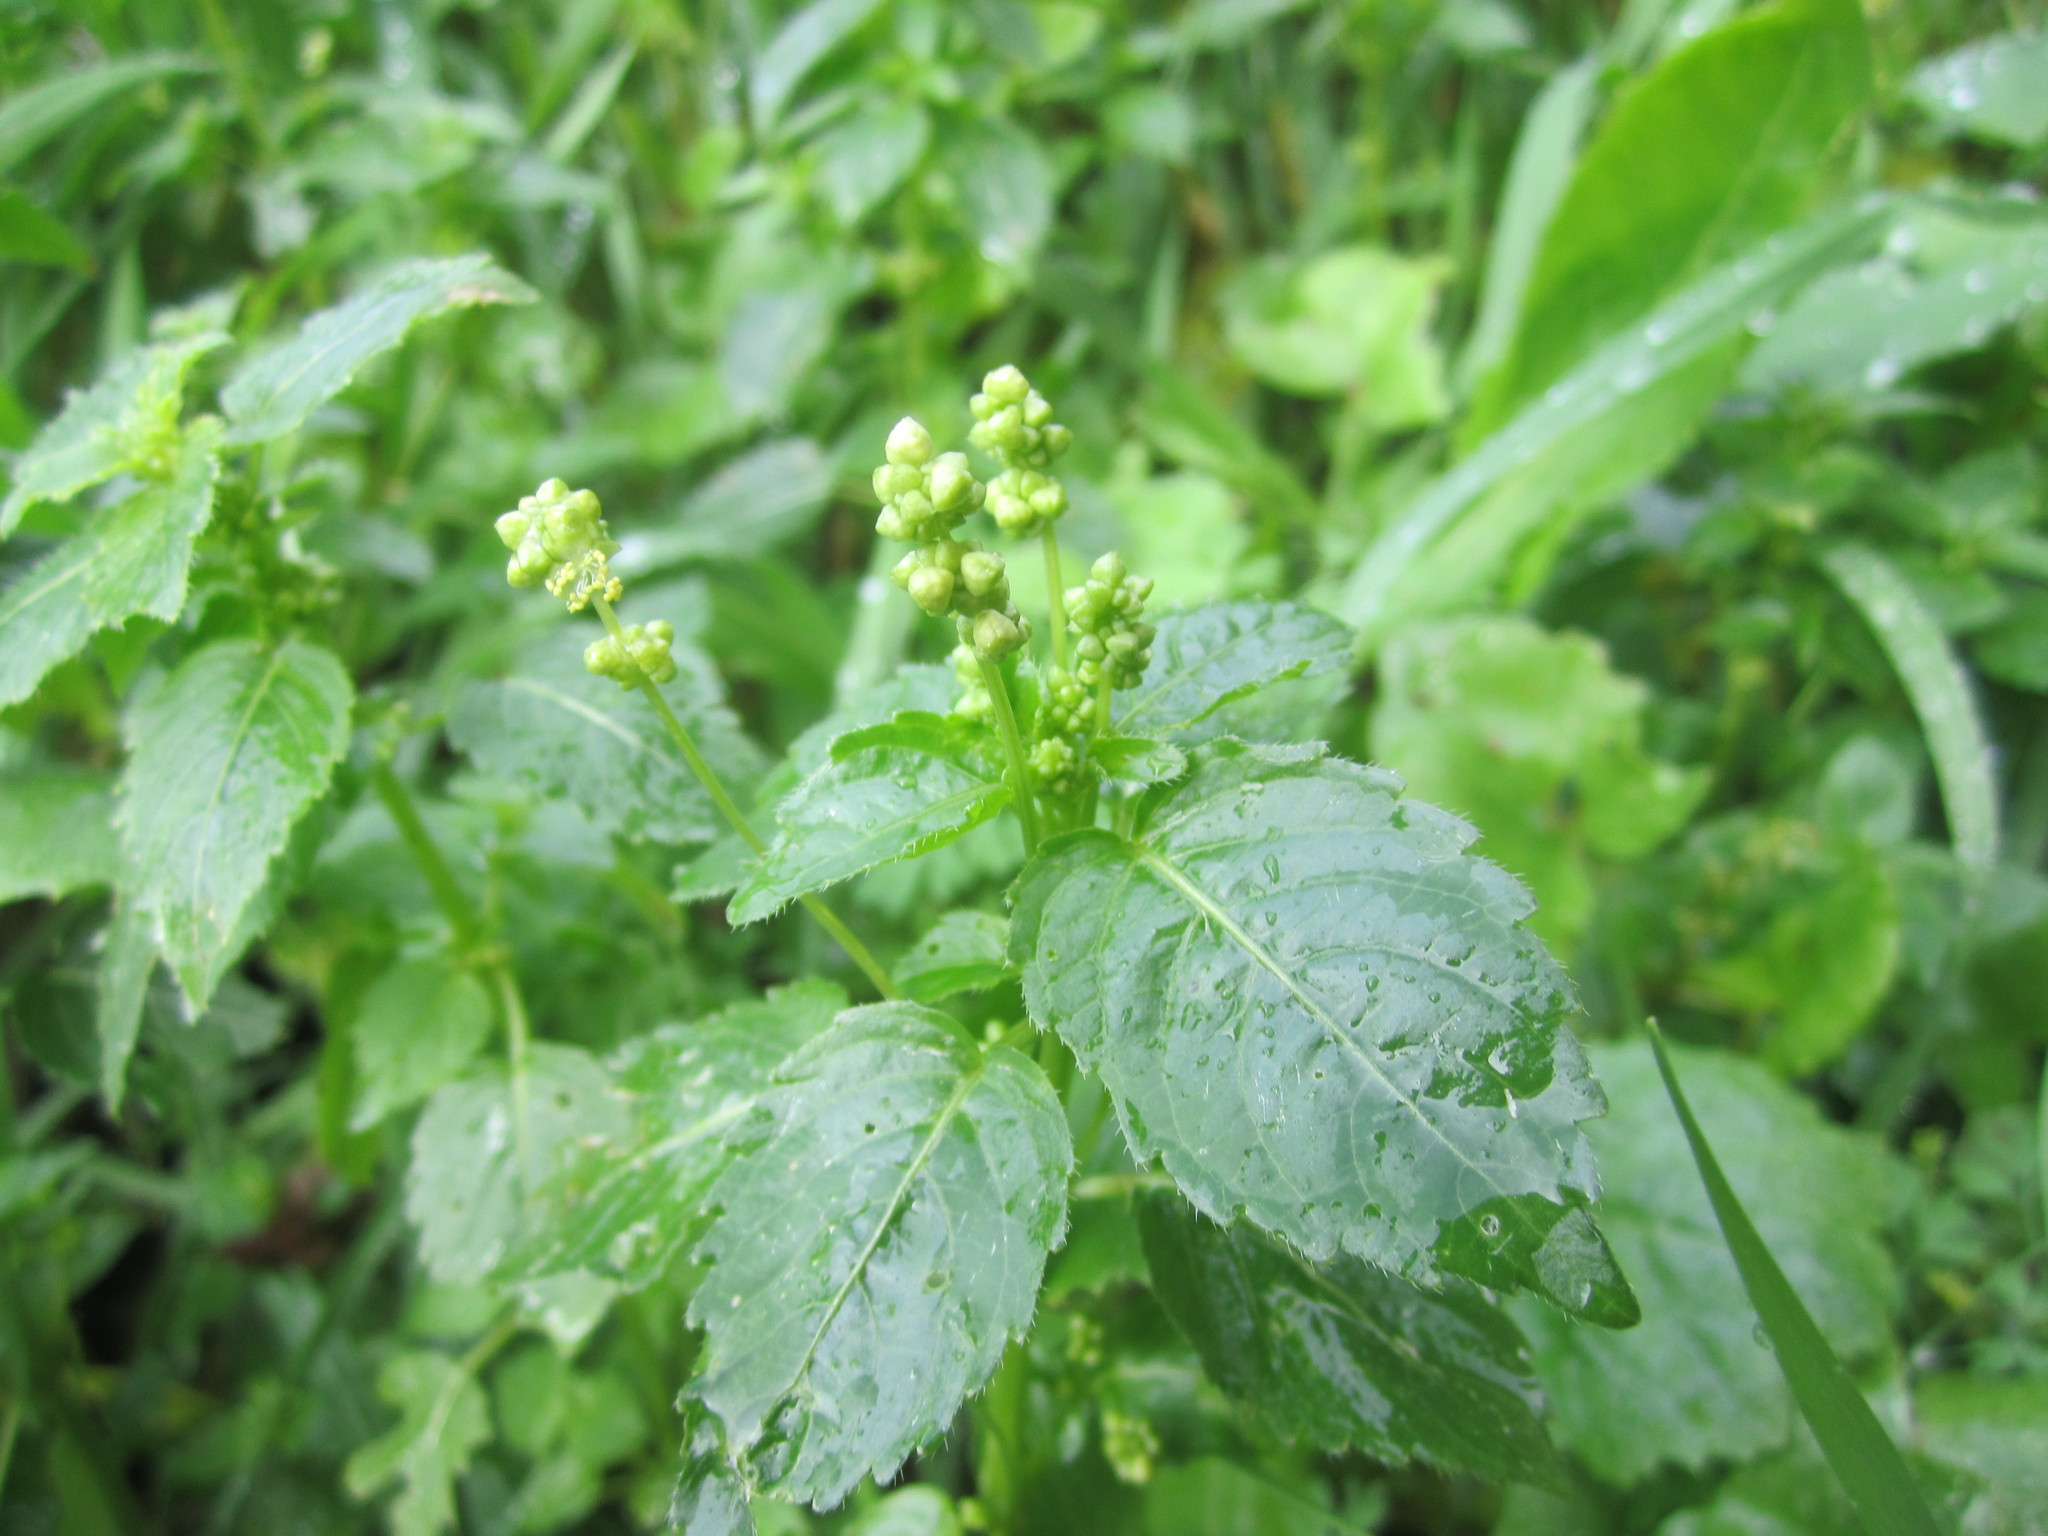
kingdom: Plantae
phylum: Tracheophyta
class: Magnoliopsida
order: Malpighiales
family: Euphorbiaceae
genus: Mercurialis
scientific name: Mercurialis annua
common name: Annual mercury
